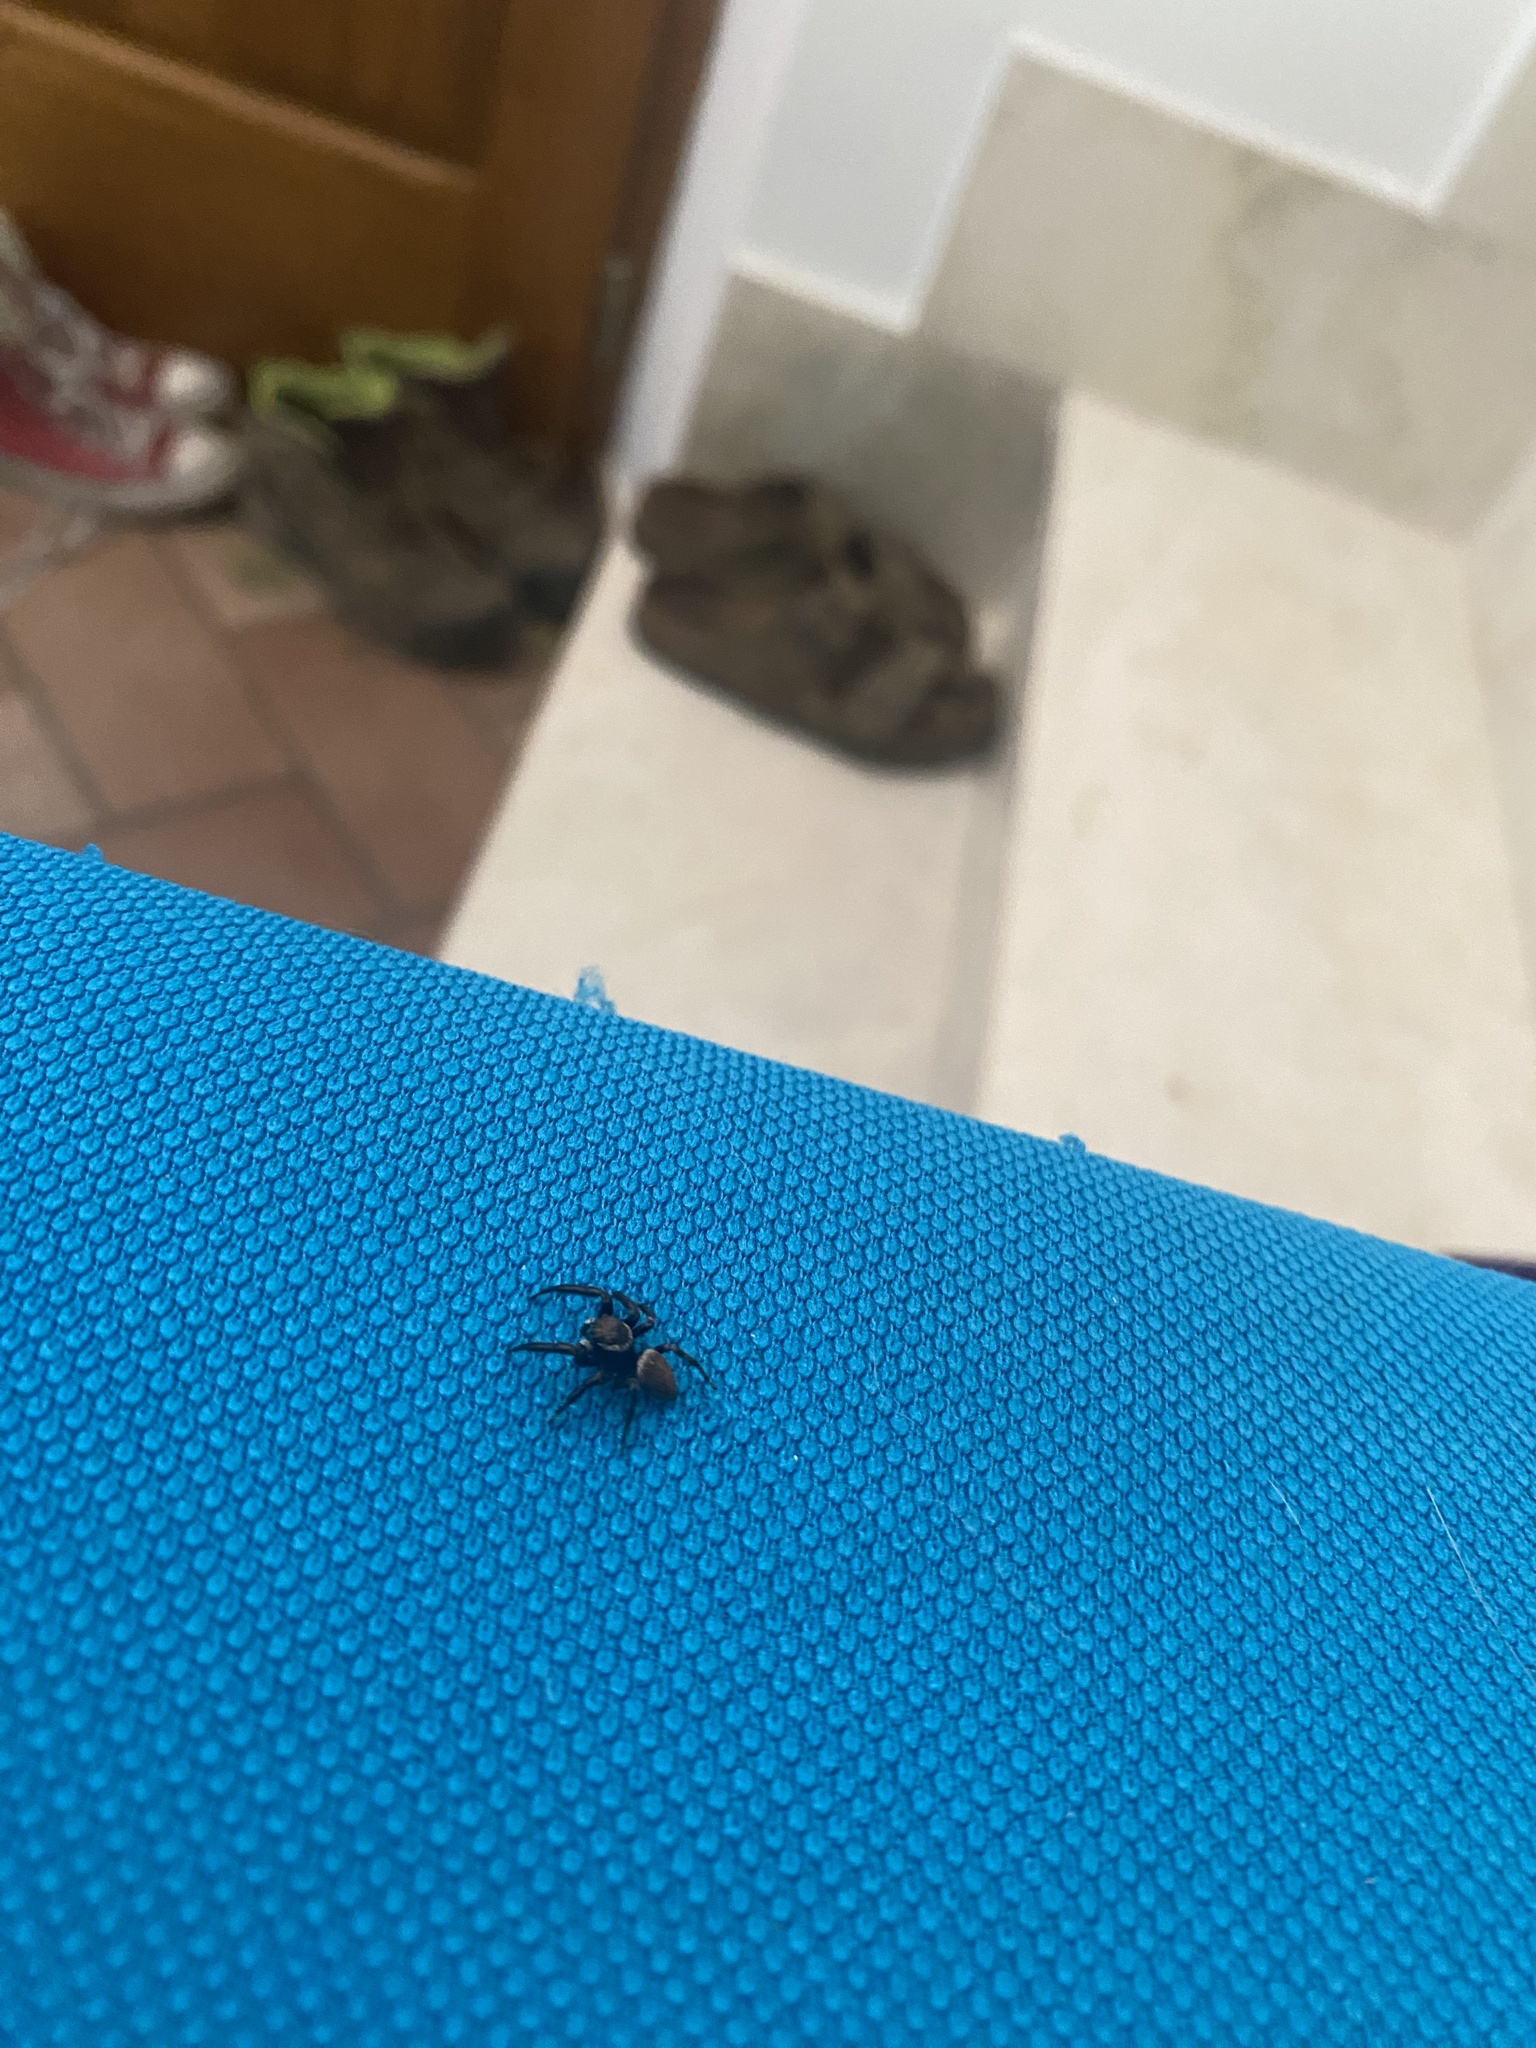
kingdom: Animalia
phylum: Arthropoda
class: Arachnida
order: Araneae
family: Salticidae
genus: Evarcha
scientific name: Evarcha jucunda
